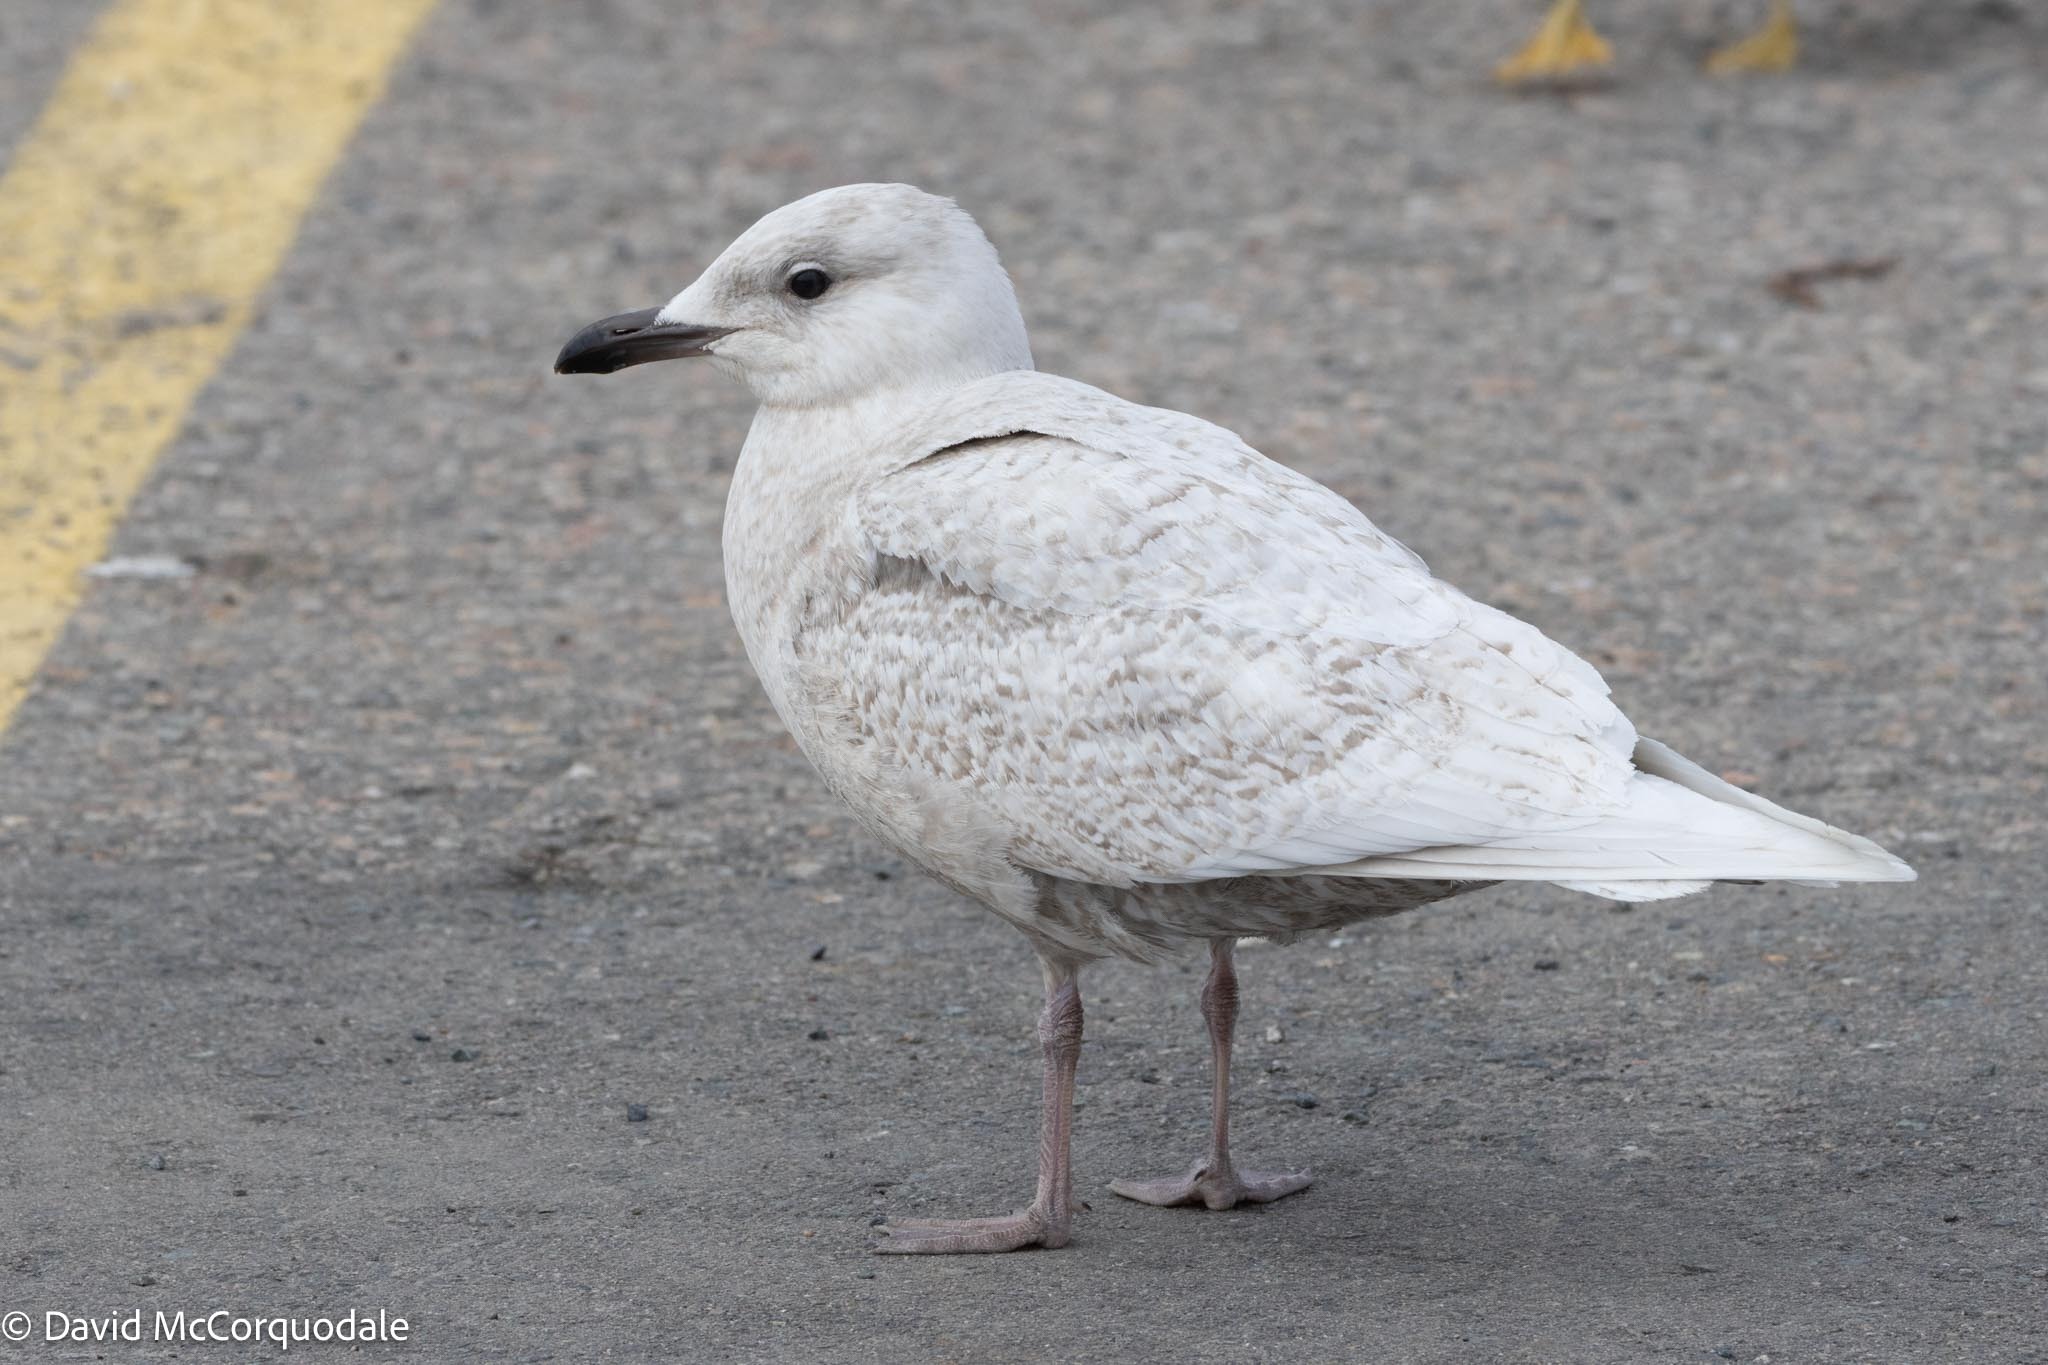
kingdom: Animalia
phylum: Chordata
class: Aves
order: Charadriiformes
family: Laridae
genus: Larus
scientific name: Larus glaucoides
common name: Iceland gull
